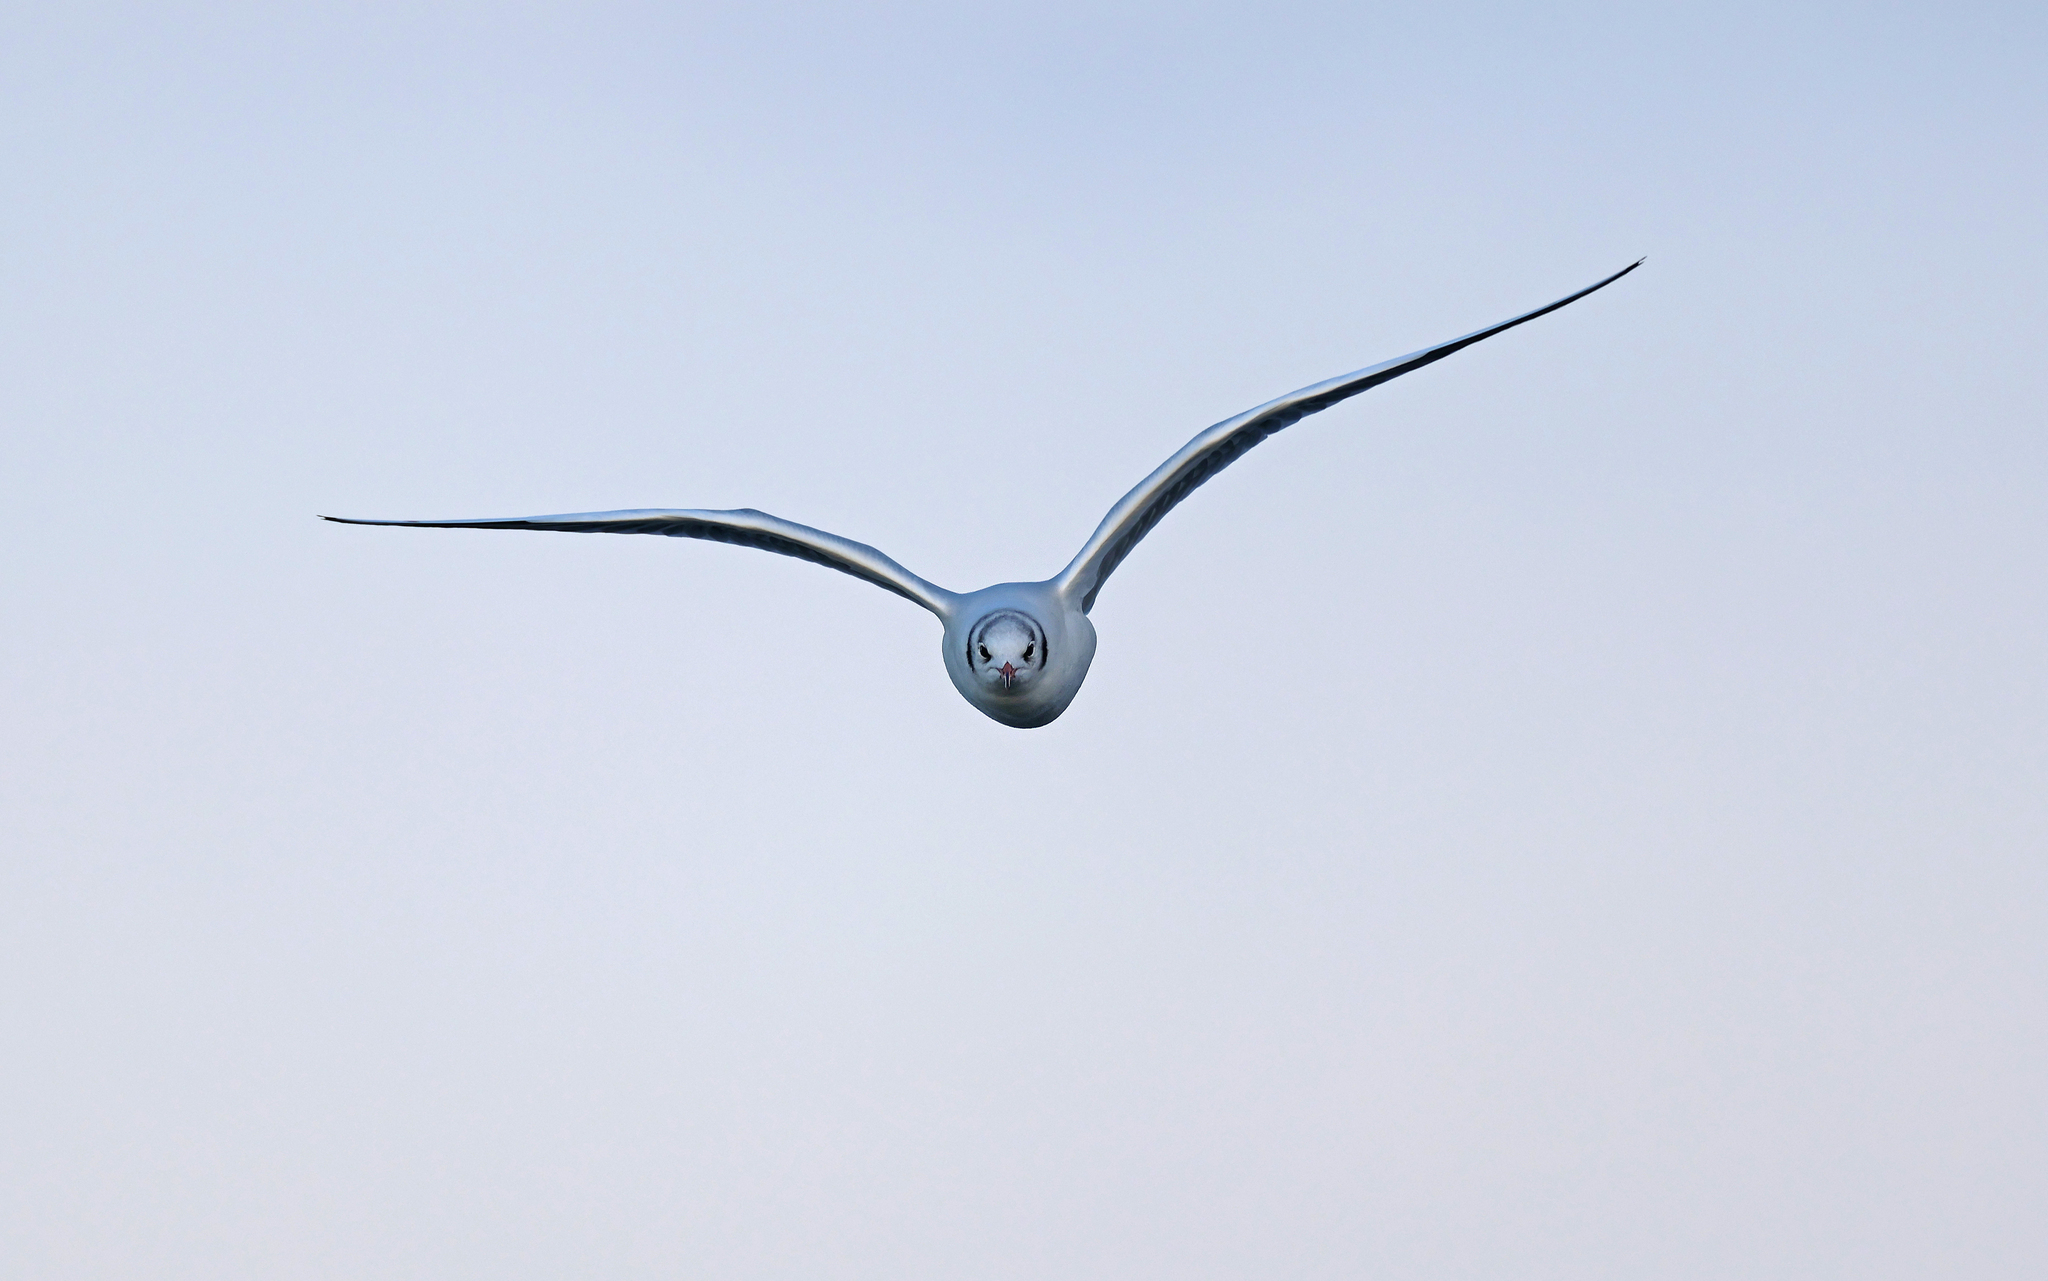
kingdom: Animalia
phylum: Chordata
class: Aves
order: Charadriiformes
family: Laridae
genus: Chroicocephalus
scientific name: Chroicocephalus ridibundus
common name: Black-headed gull
